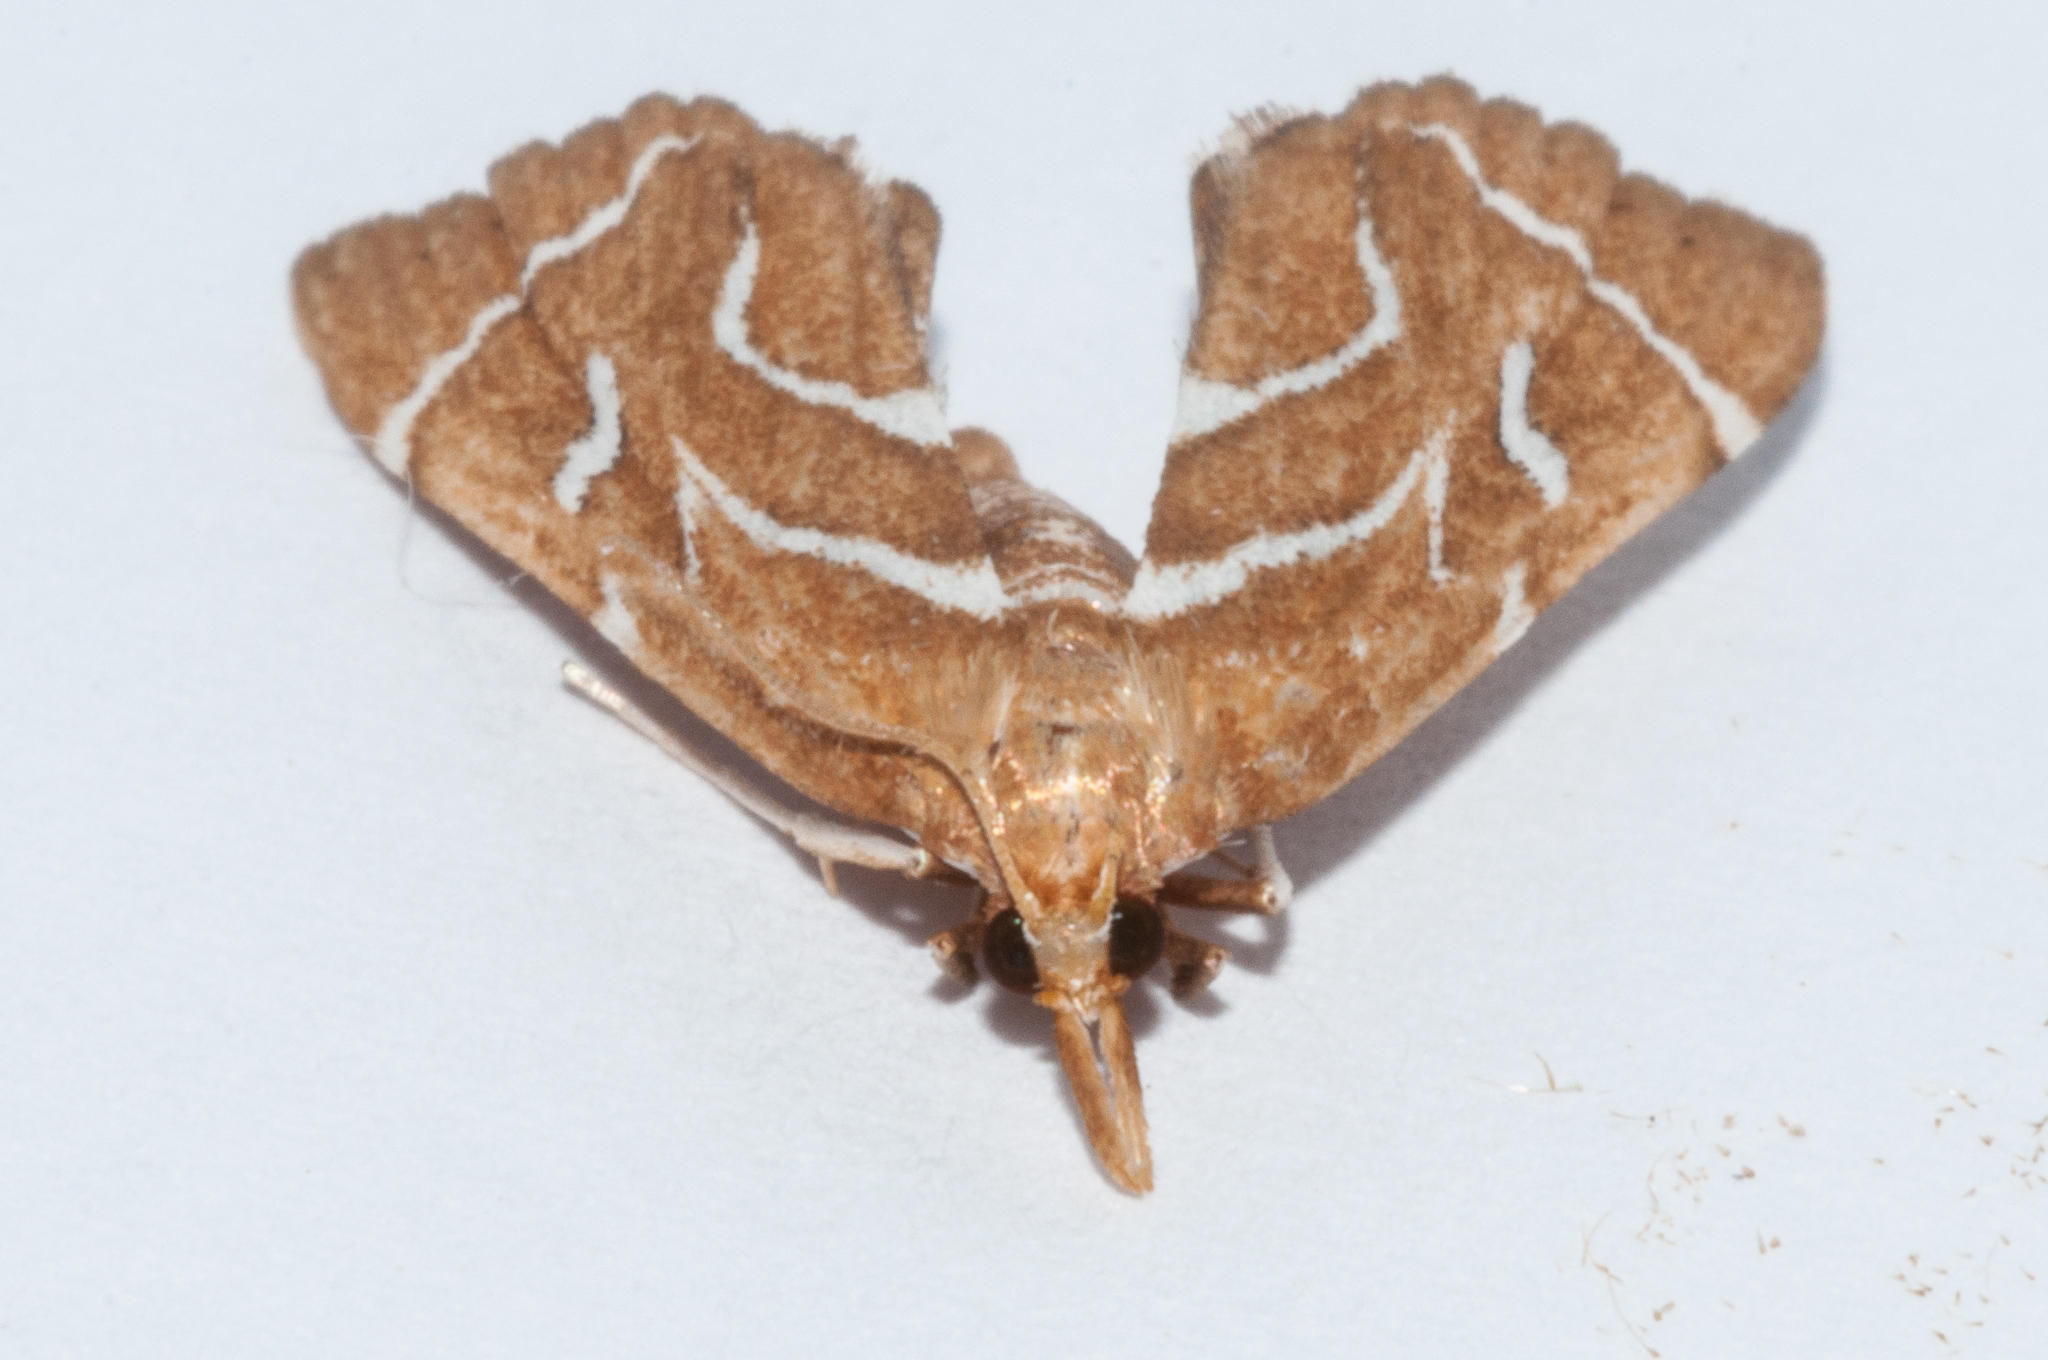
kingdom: Animalia
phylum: Arthropoda
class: Insecta
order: Lepidoptera
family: Pyralidae
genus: Panotima
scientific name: Panotima angularis
